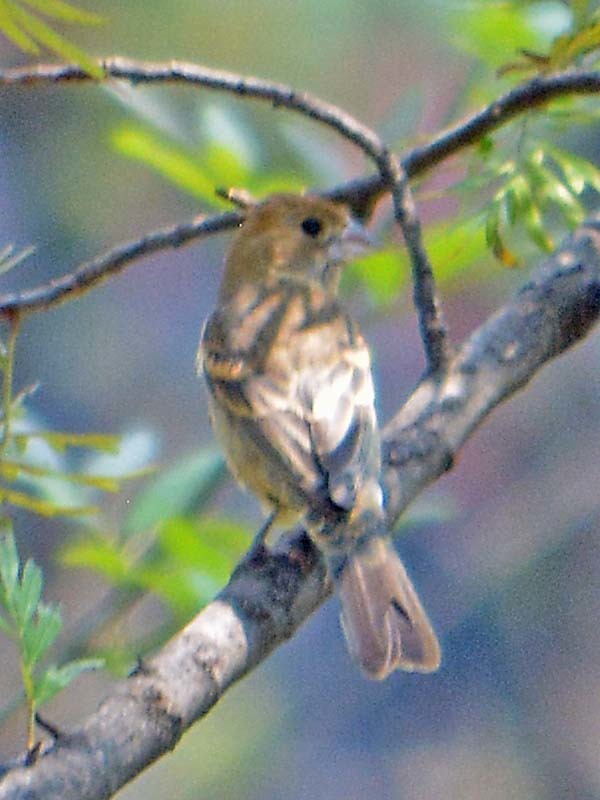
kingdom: Animalia
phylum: Chordata
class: Aves
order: Passeriformes
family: Cardinalidae
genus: Passerina
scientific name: Passerina caerulea
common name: Blue grosbeak
